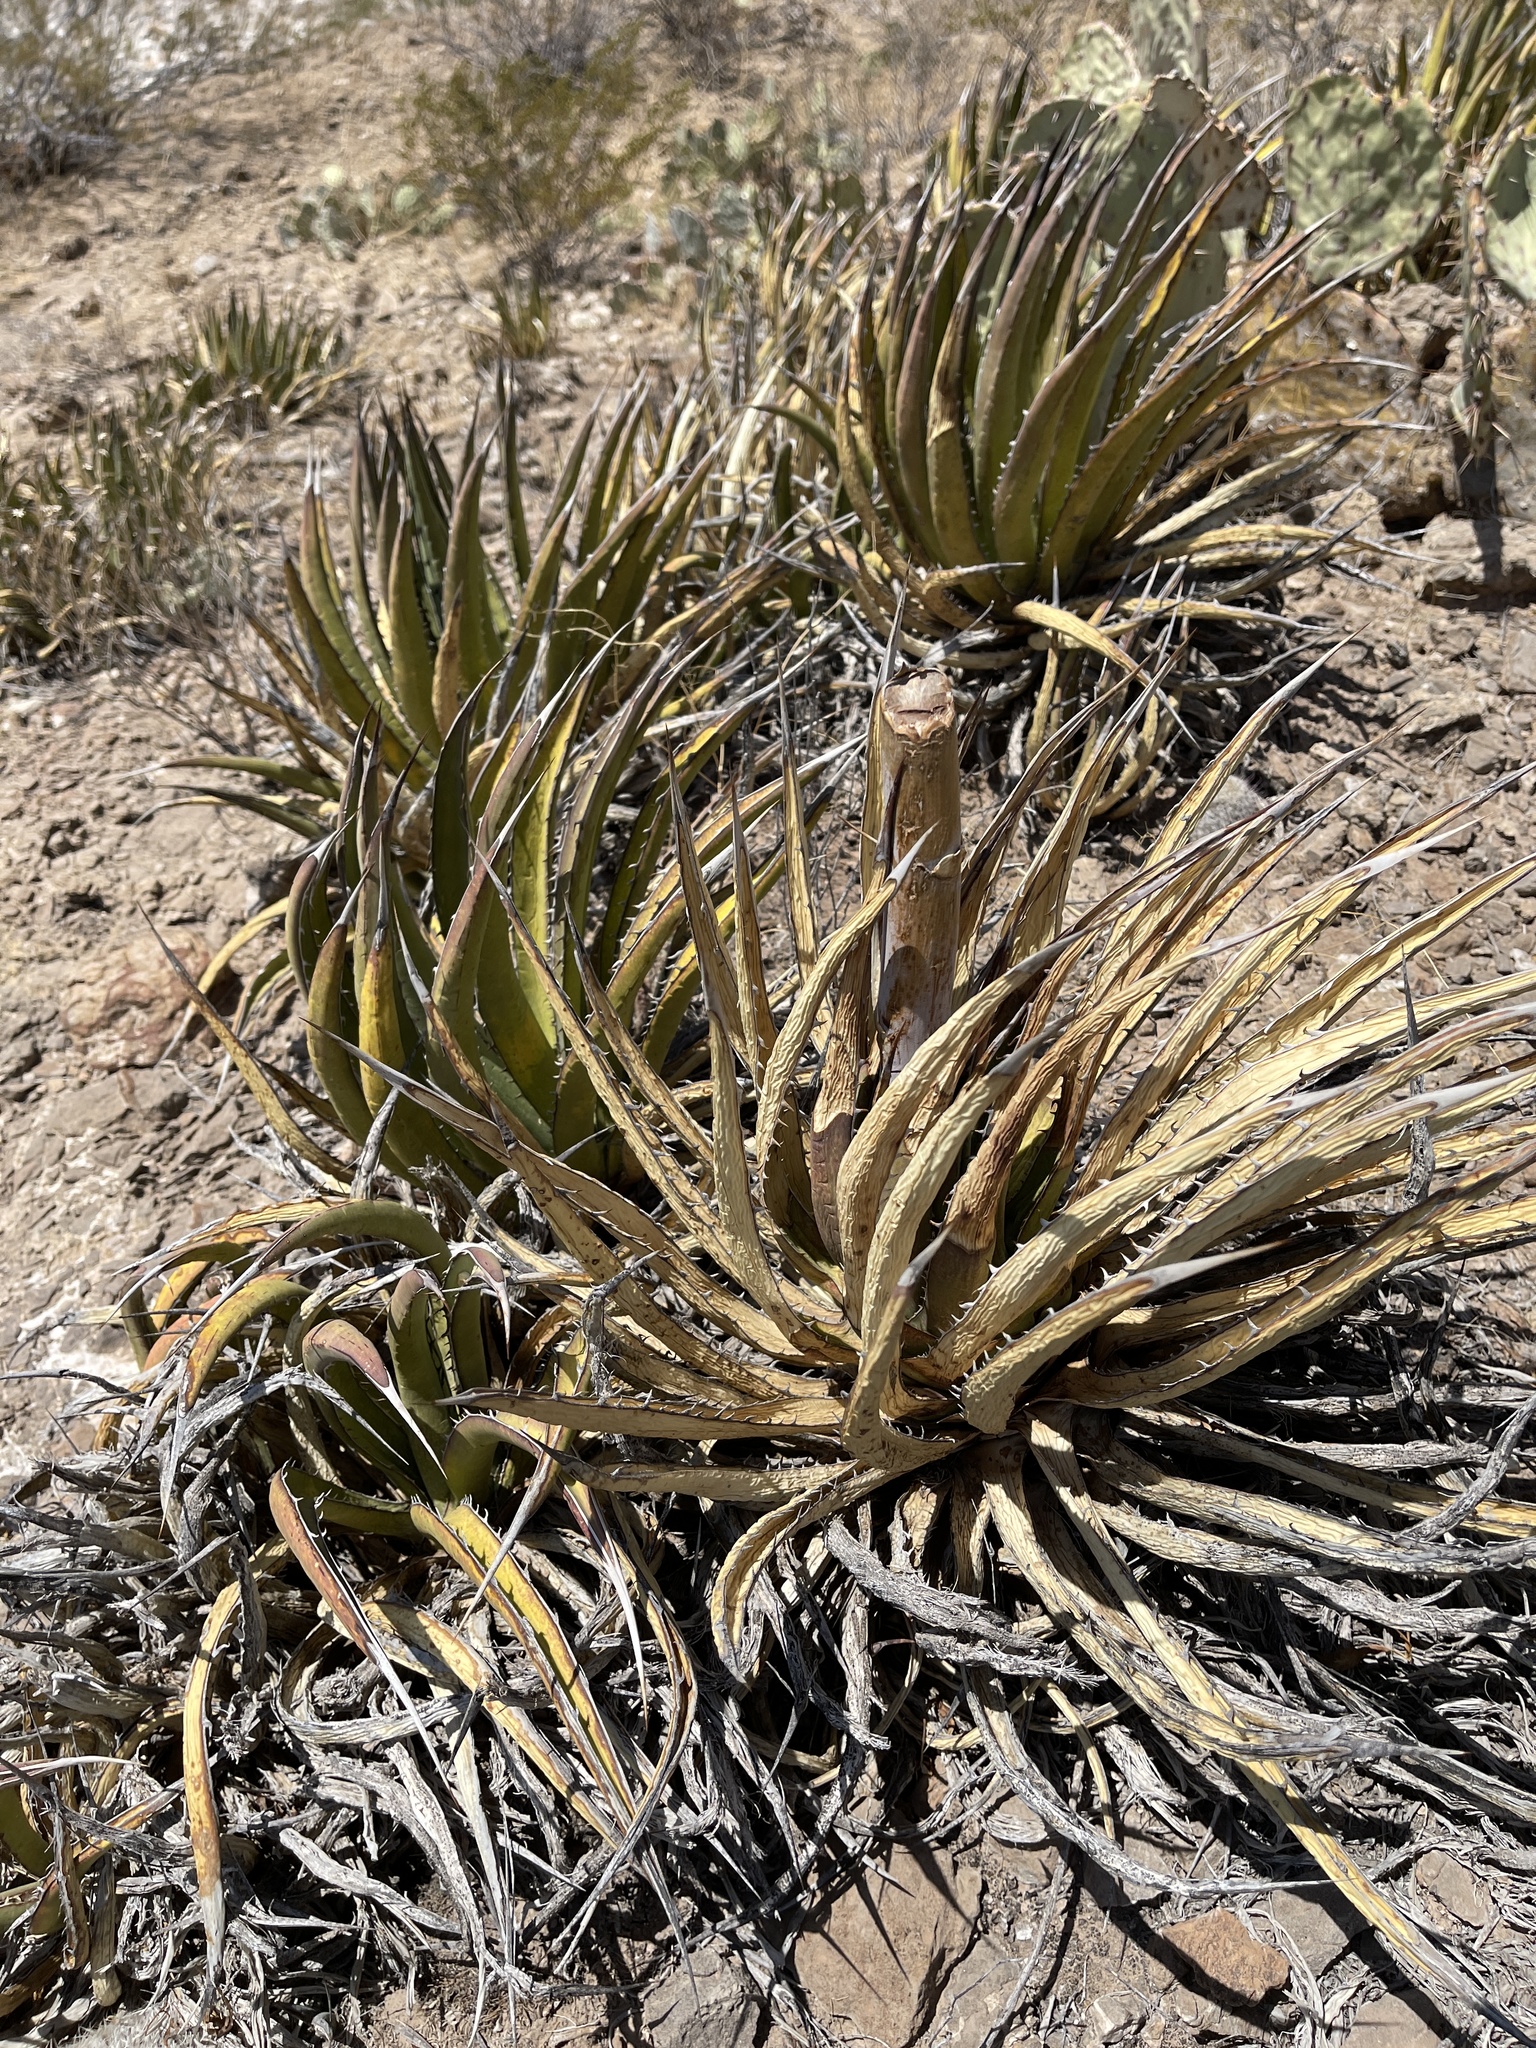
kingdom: Plantae
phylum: Tracheophyta
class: Liliopsida
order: Asparagales
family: Asparagaceae
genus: Agave
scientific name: Agave lechuguilla
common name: Lecheguilla agave
